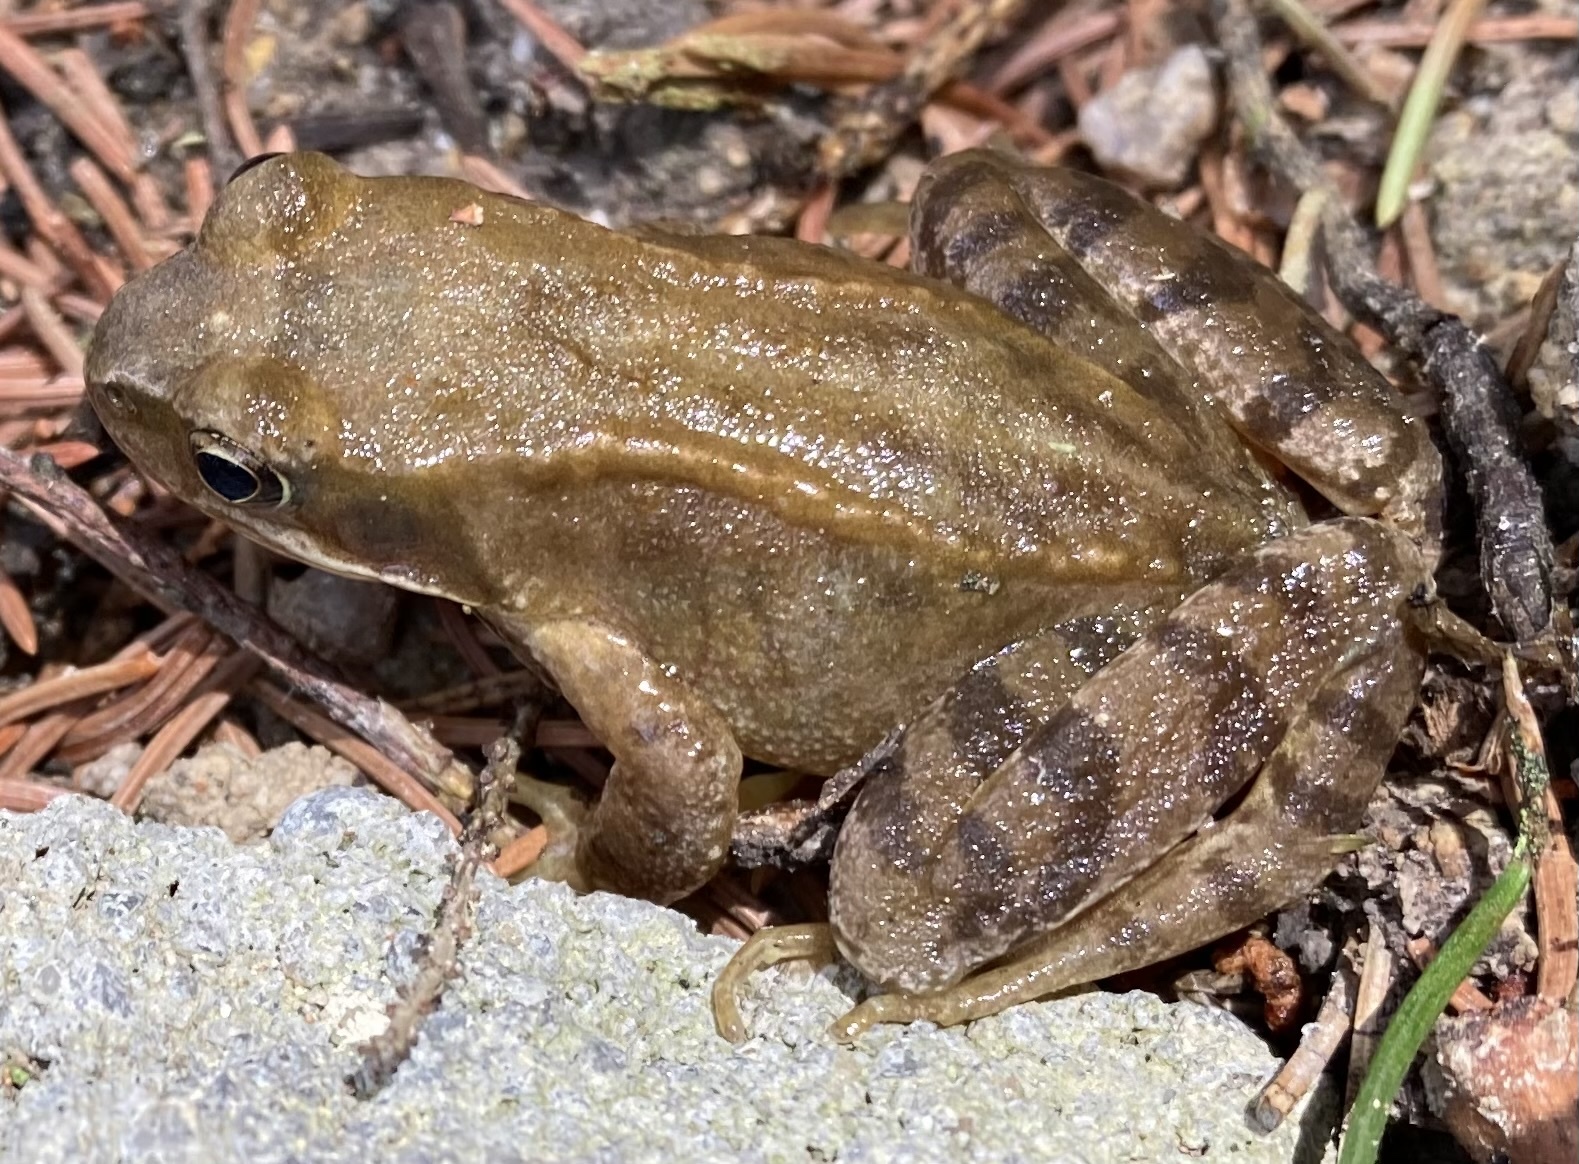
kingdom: Animalia
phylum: Chordata
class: Amphibia
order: Anura
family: Ranidae
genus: Rana
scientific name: Rana temporaria
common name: Common frog
